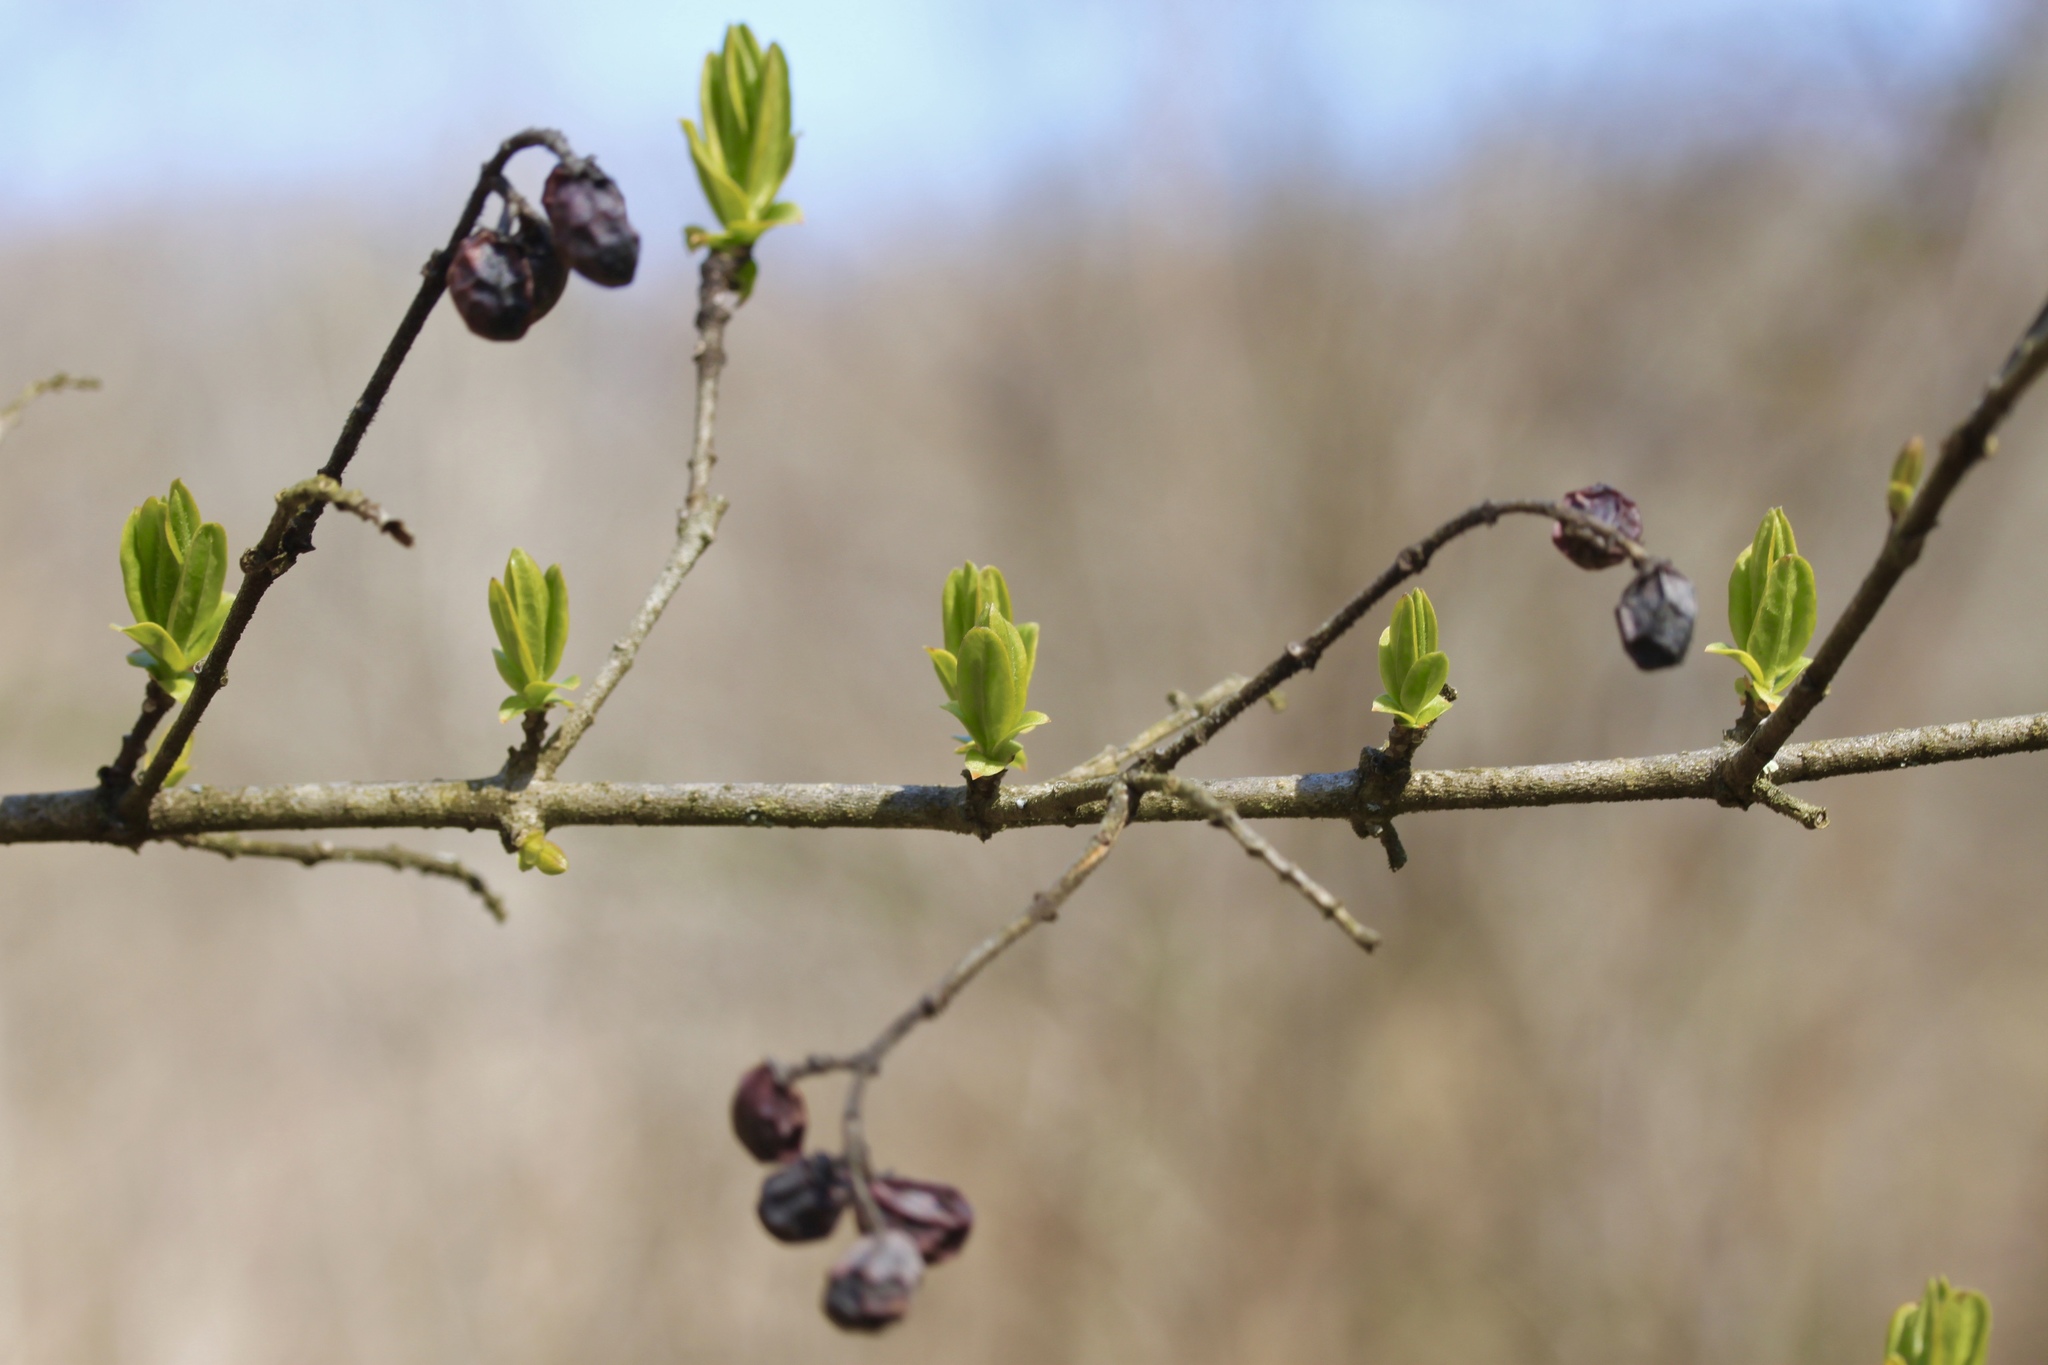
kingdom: Plantae
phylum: Tracheophyta
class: Magnoliopsida
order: Lamiales
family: Oleaceae
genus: Ligustrum
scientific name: Ligustrum obtusifolium
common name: Border privet
